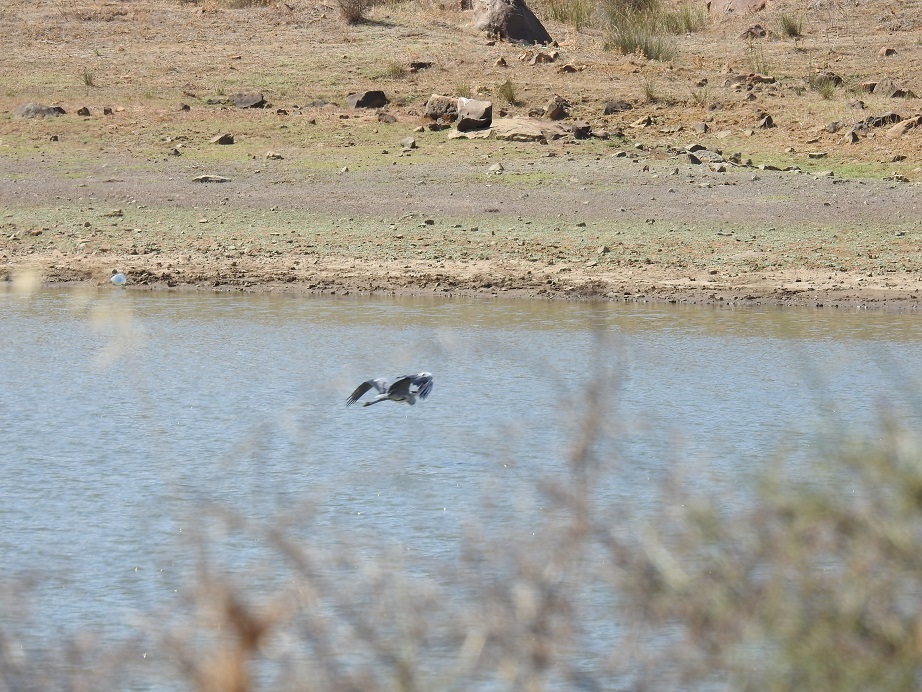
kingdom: Animalia
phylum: Chordata
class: Aves
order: Pelecaniformes
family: Ardeidae
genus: Ardea
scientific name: Ardea cinerea
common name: Grey heron
